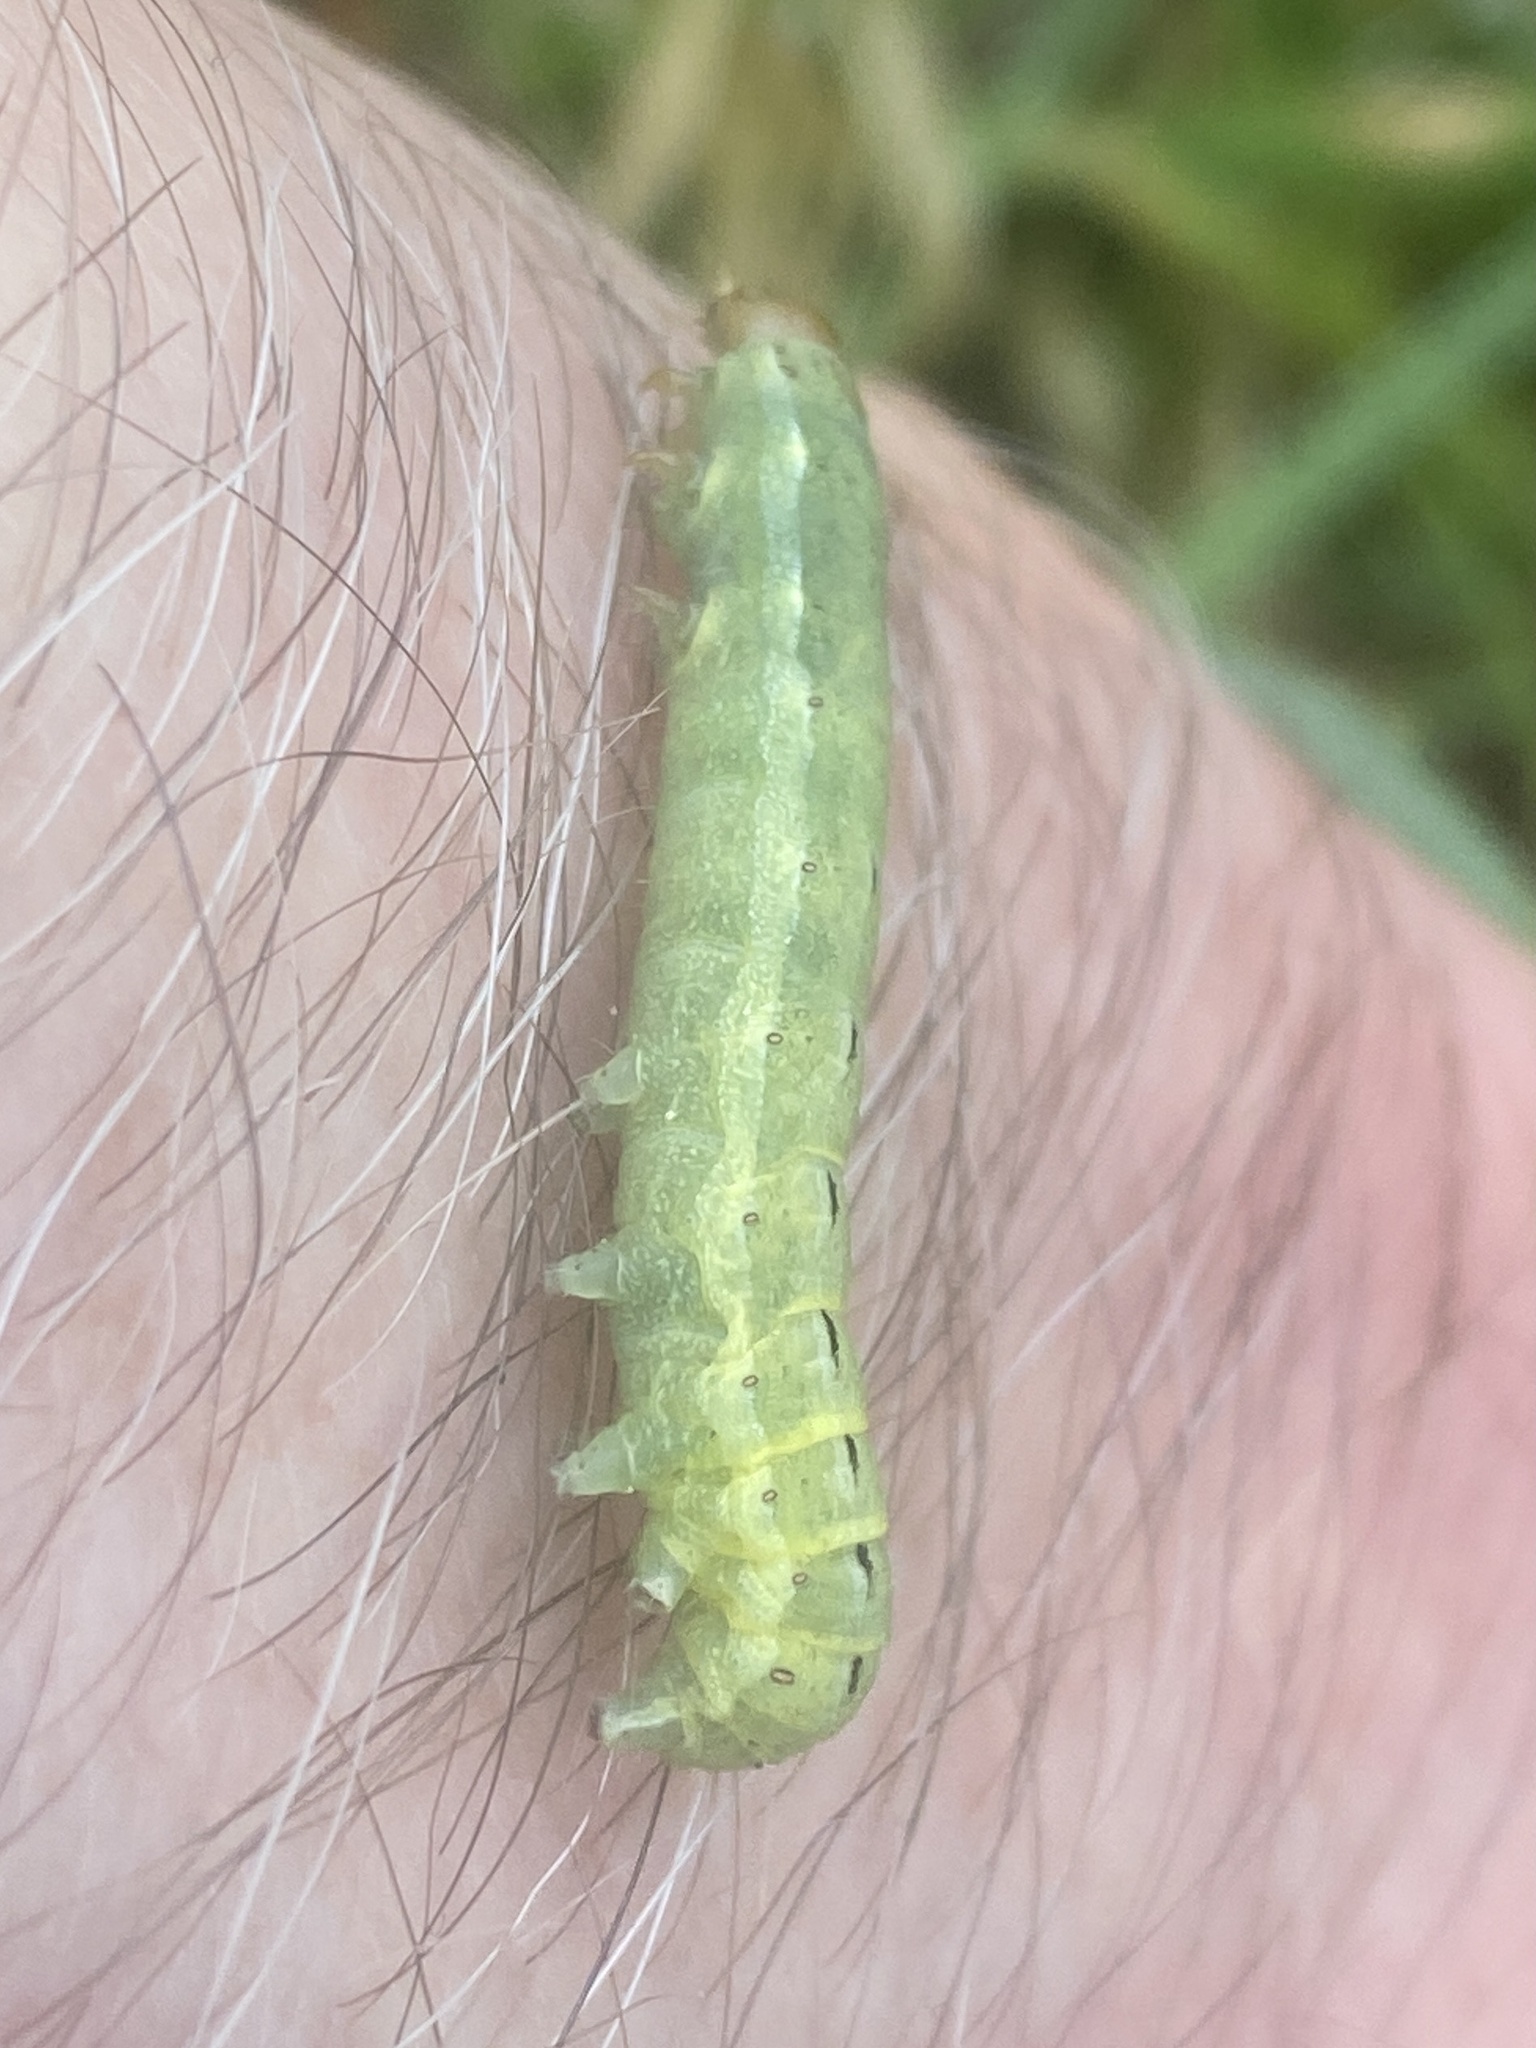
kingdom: Animalia
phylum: Arthropoda
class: Insecta
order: Lepidoptera
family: Noctuidae
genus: Noctua
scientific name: Noctua pronuba
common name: Large yellow underwing
